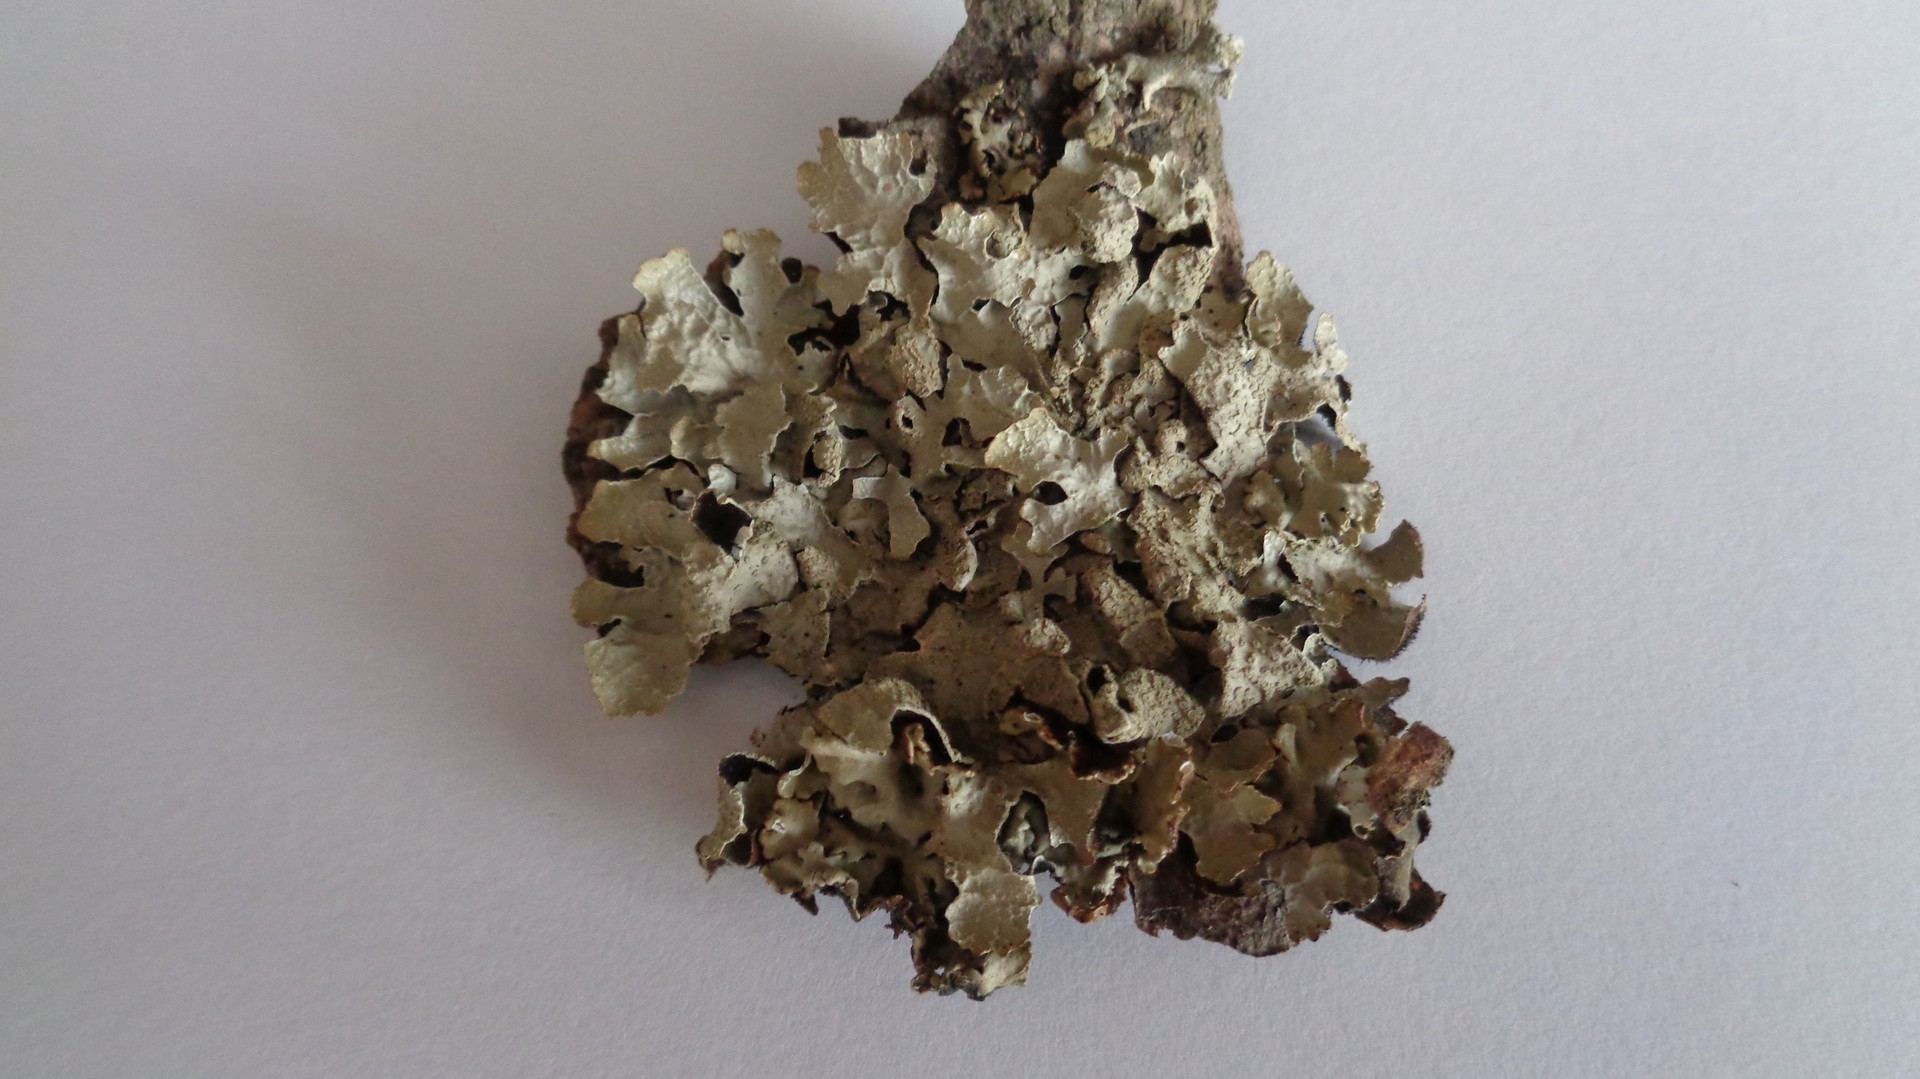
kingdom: Fungi
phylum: Ascomycota
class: Lecanoromycetes
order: Lecanorales
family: Parmeliaceae
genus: Parmelia
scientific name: Parmelia sulcata
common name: Netted shield lichen
